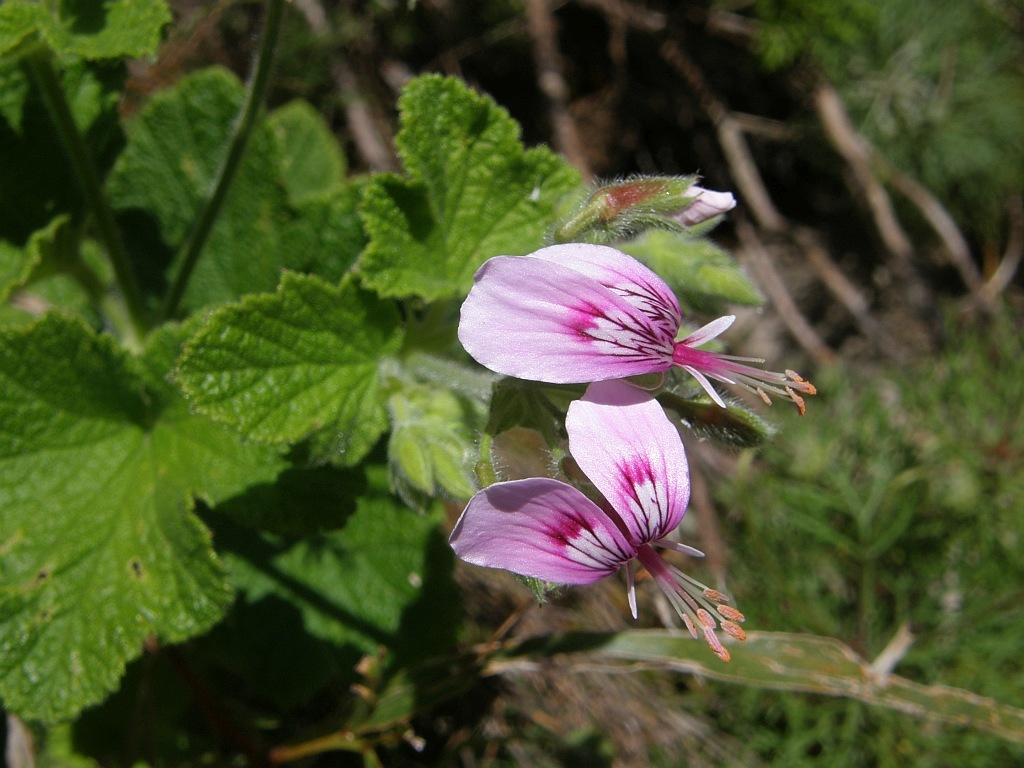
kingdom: Plantae
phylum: Tracheophyta
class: Magnoliopsida
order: Geraniales
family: Geraniaceae
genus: Pelargonium
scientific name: Pelargonium papilionaceum
